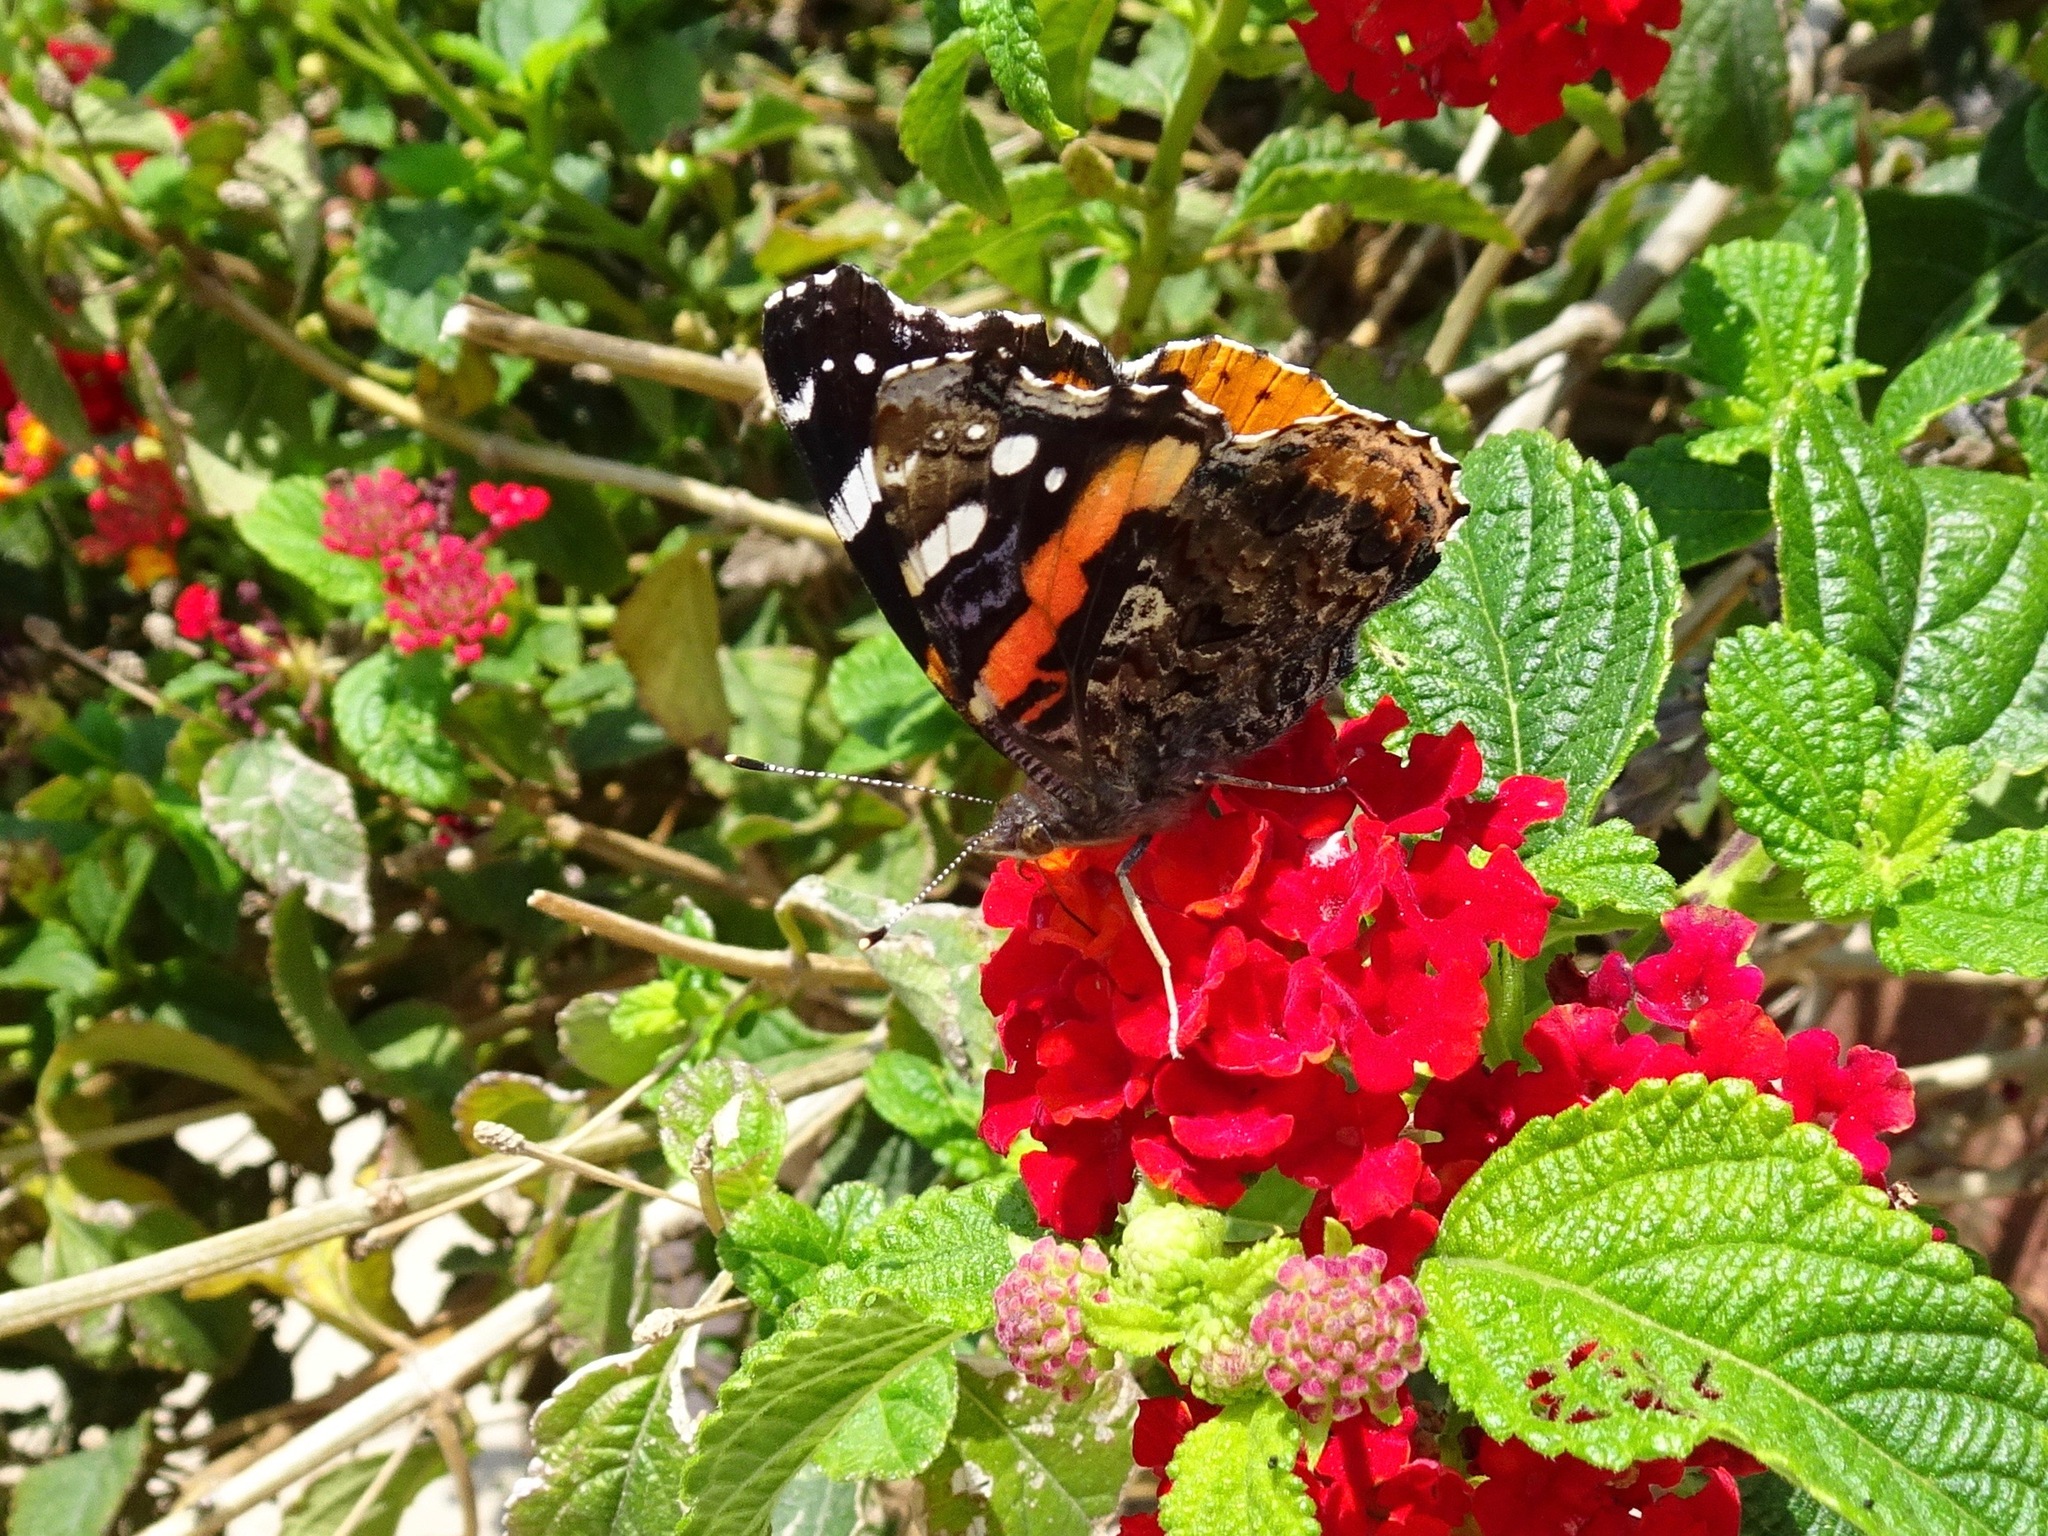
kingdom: Animalia
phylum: Arthropoda
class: Insecta
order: Lepidoptera
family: Nymphalidae
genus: Vanessa
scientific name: Vanessa atalanta
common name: Red admiral
